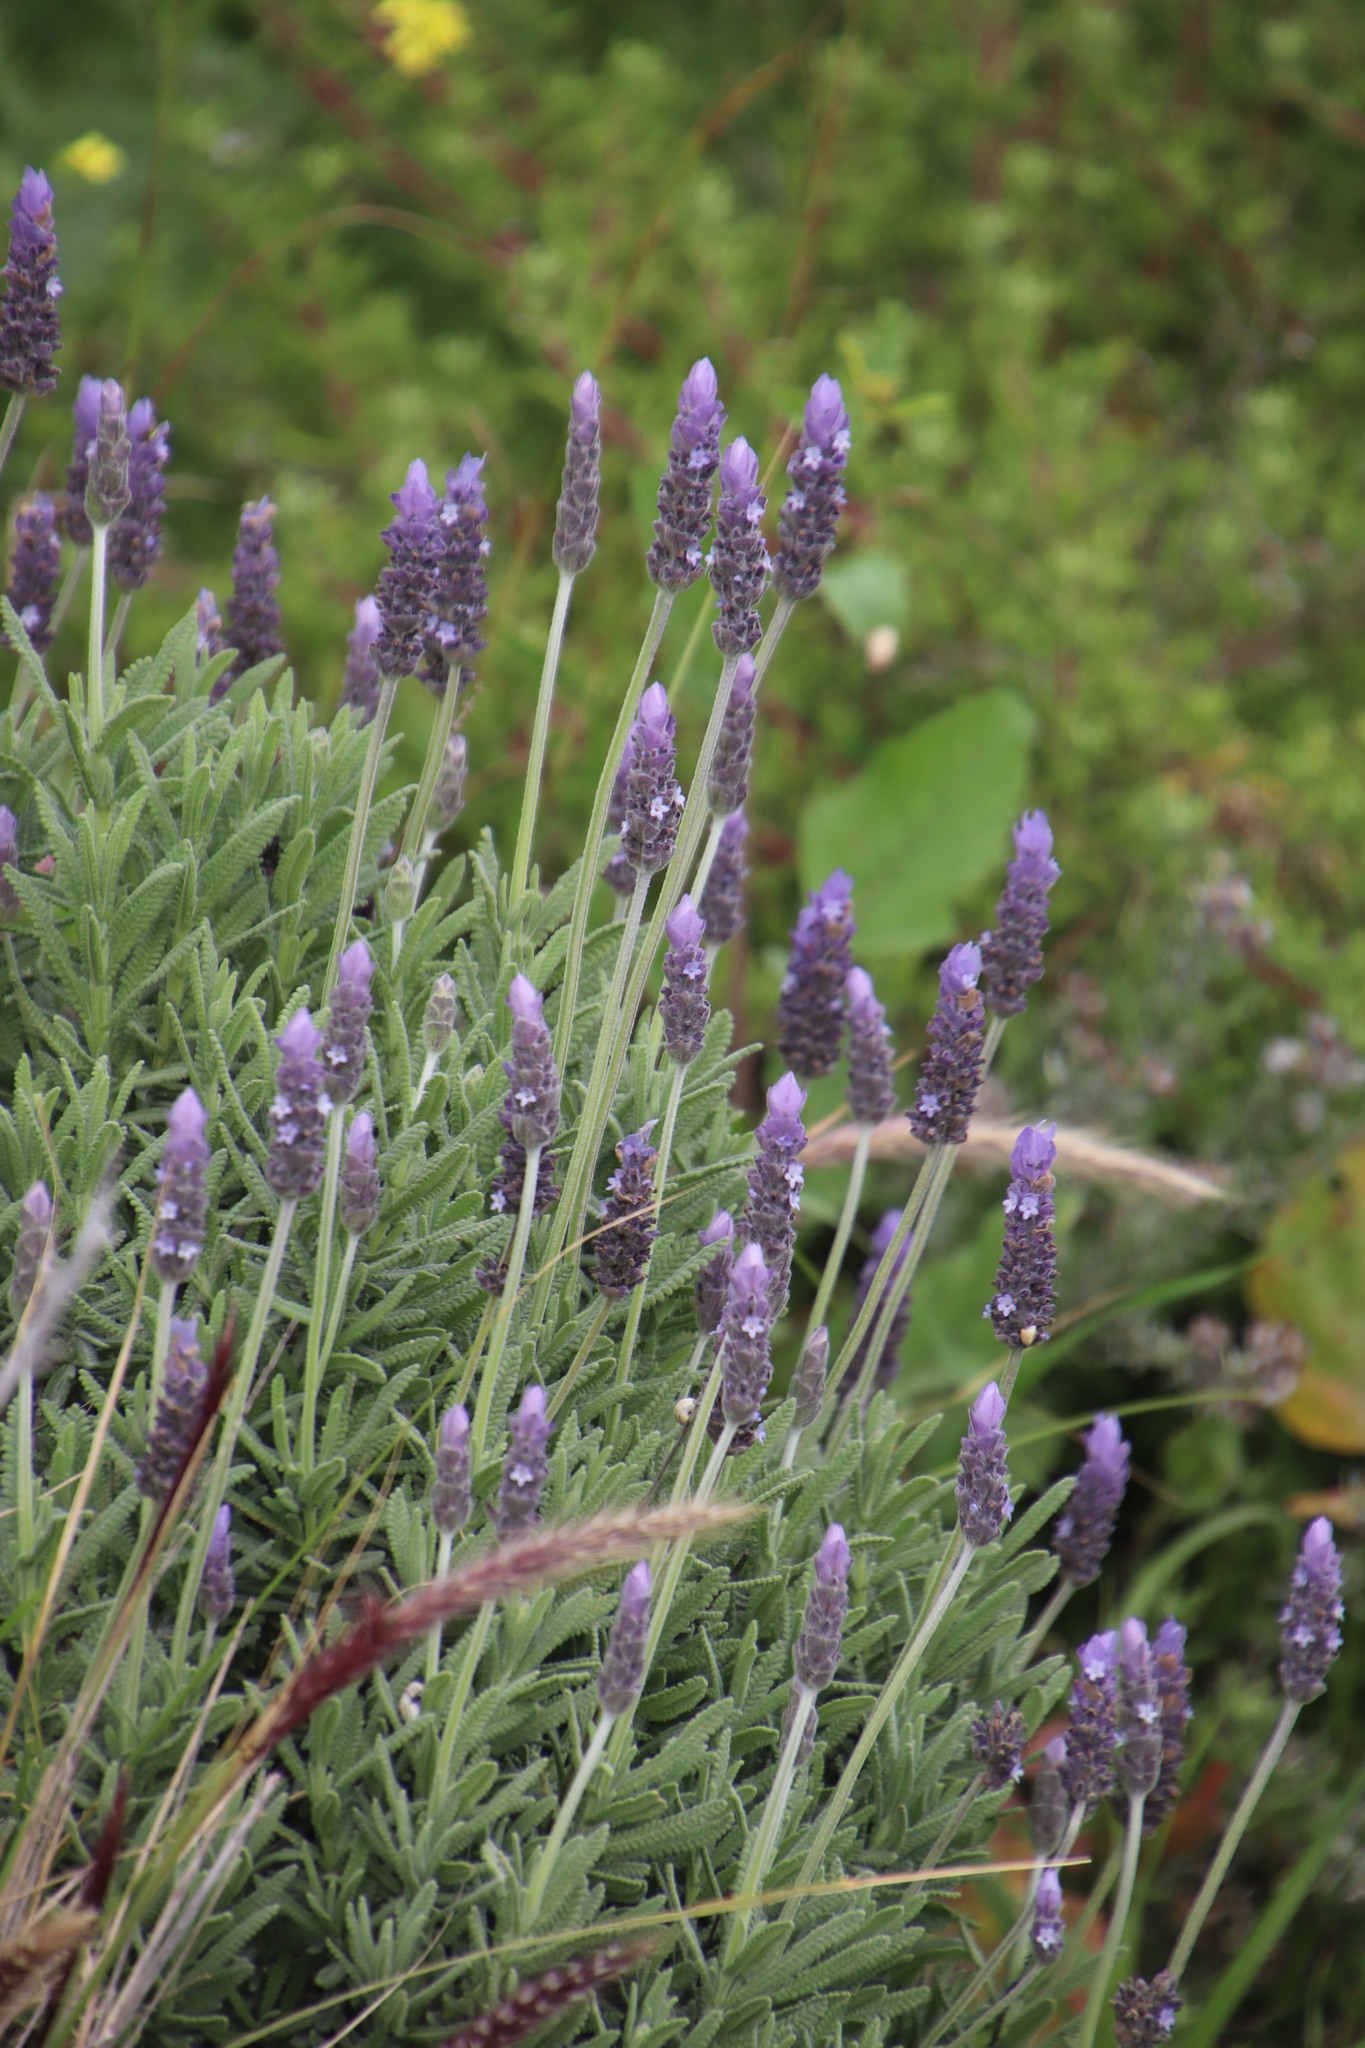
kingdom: Plantae
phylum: Tracheophyta
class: Magnoliopsida
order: Lamiales
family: Lamiaceae
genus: Lavandula
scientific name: Lavandula dentata
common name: French lavender
